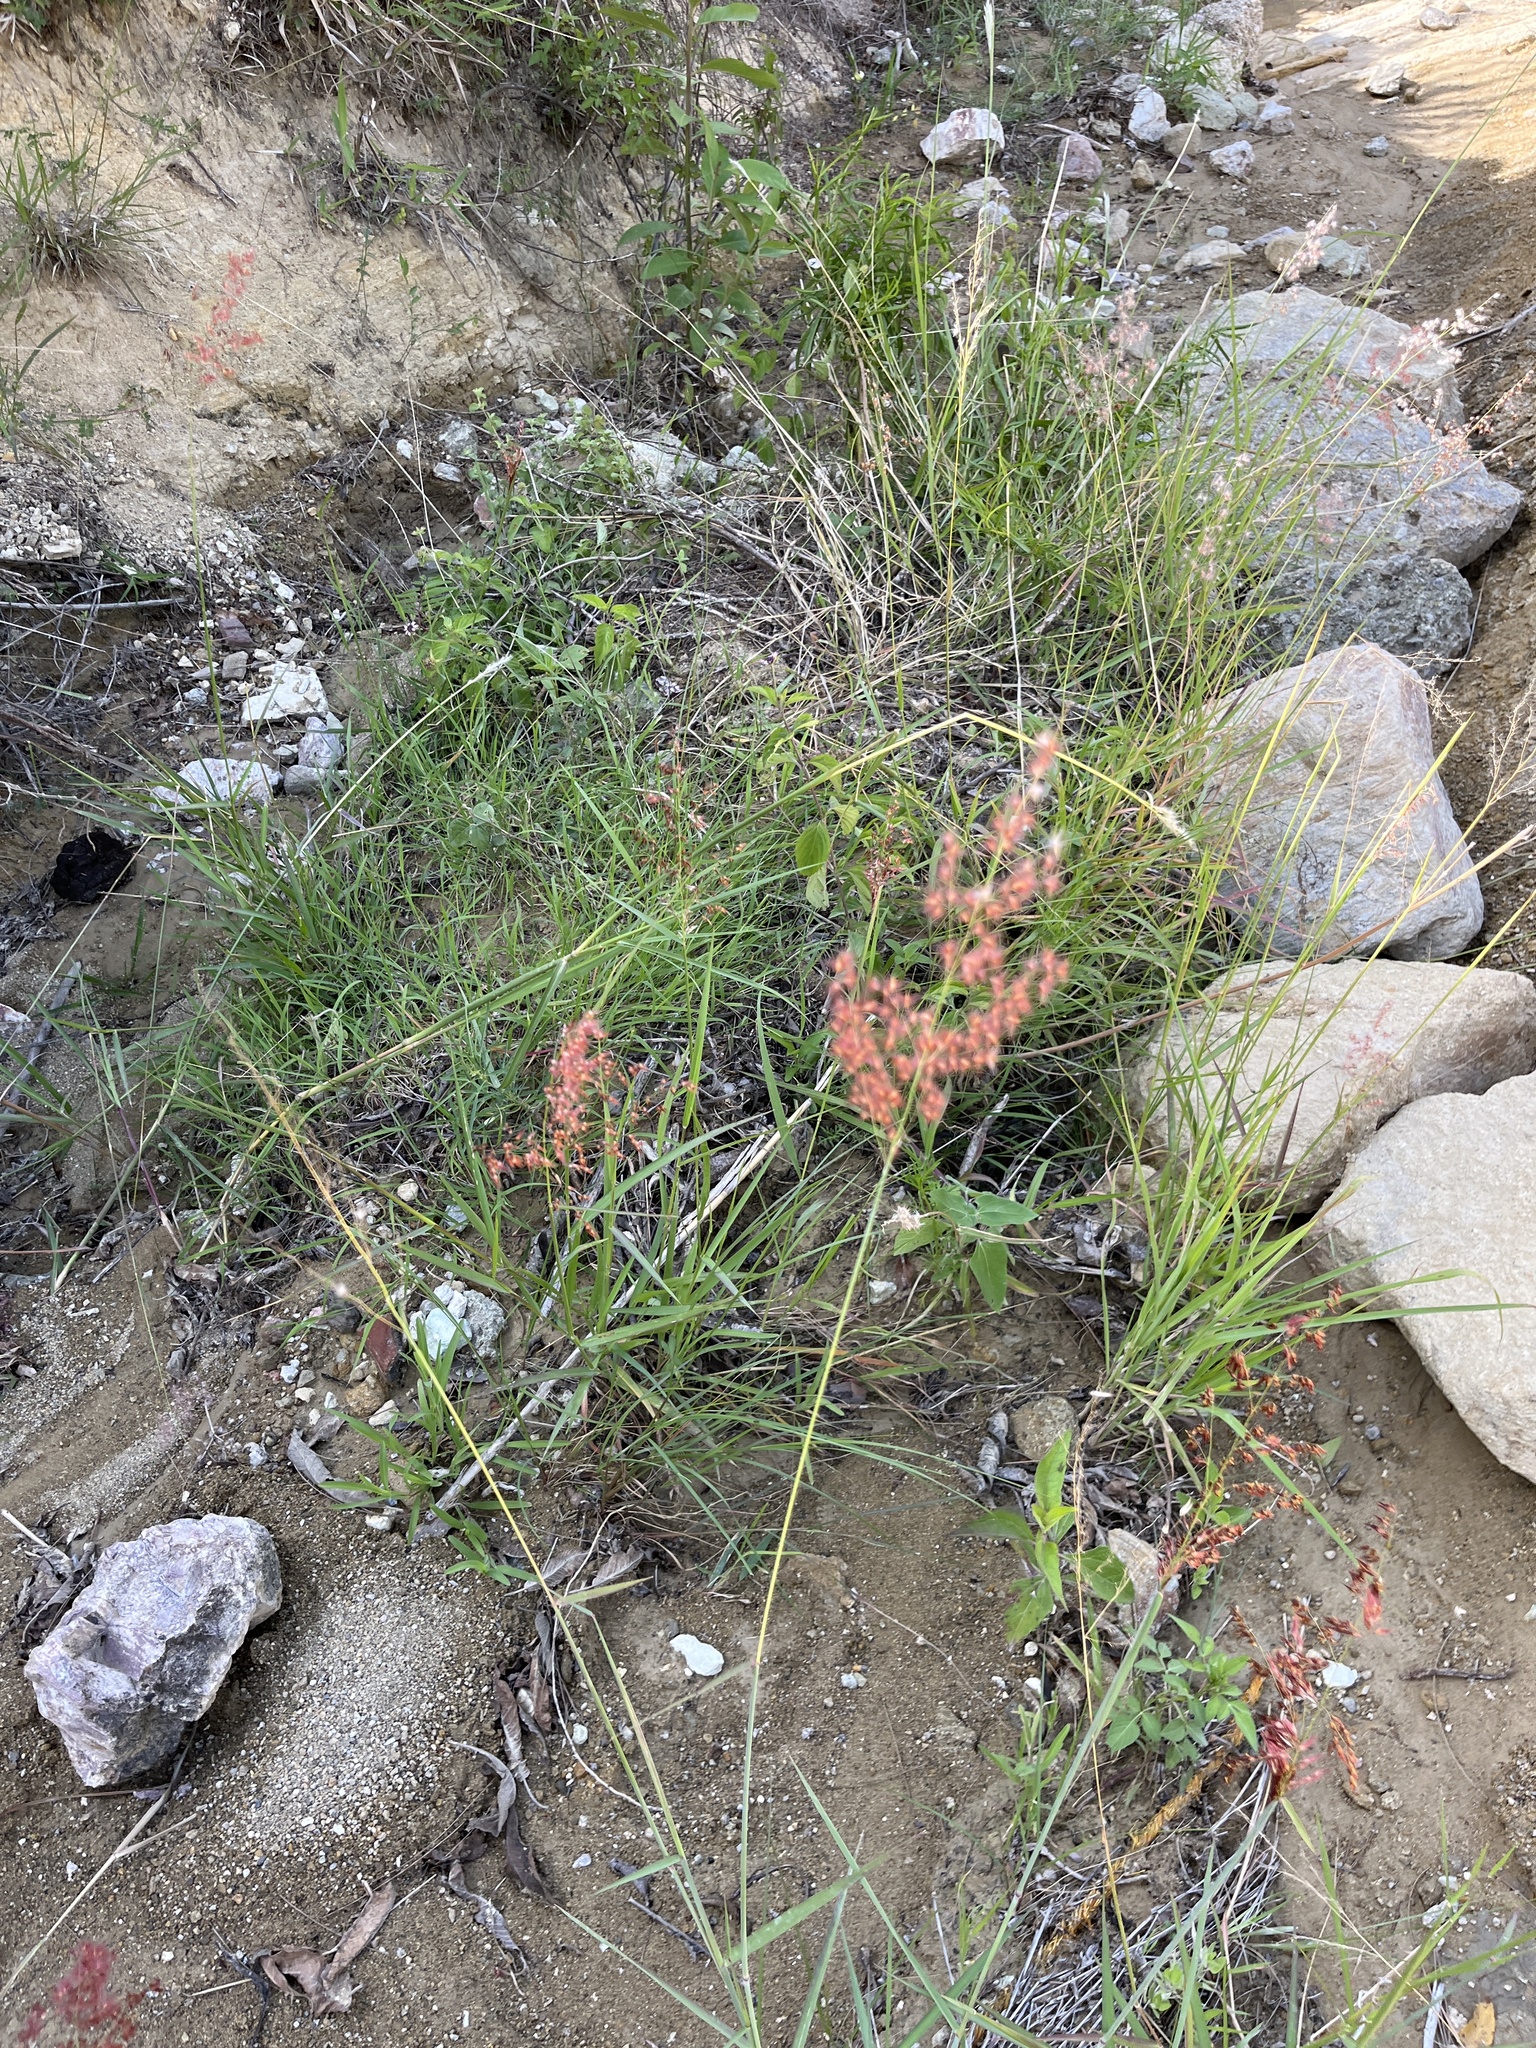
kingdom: Plantae
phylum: Tracheophyta
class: Liliopsida
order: Poales
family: Poaceae
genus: Melinis
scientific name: Melinis repens
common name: Rose natal grass
